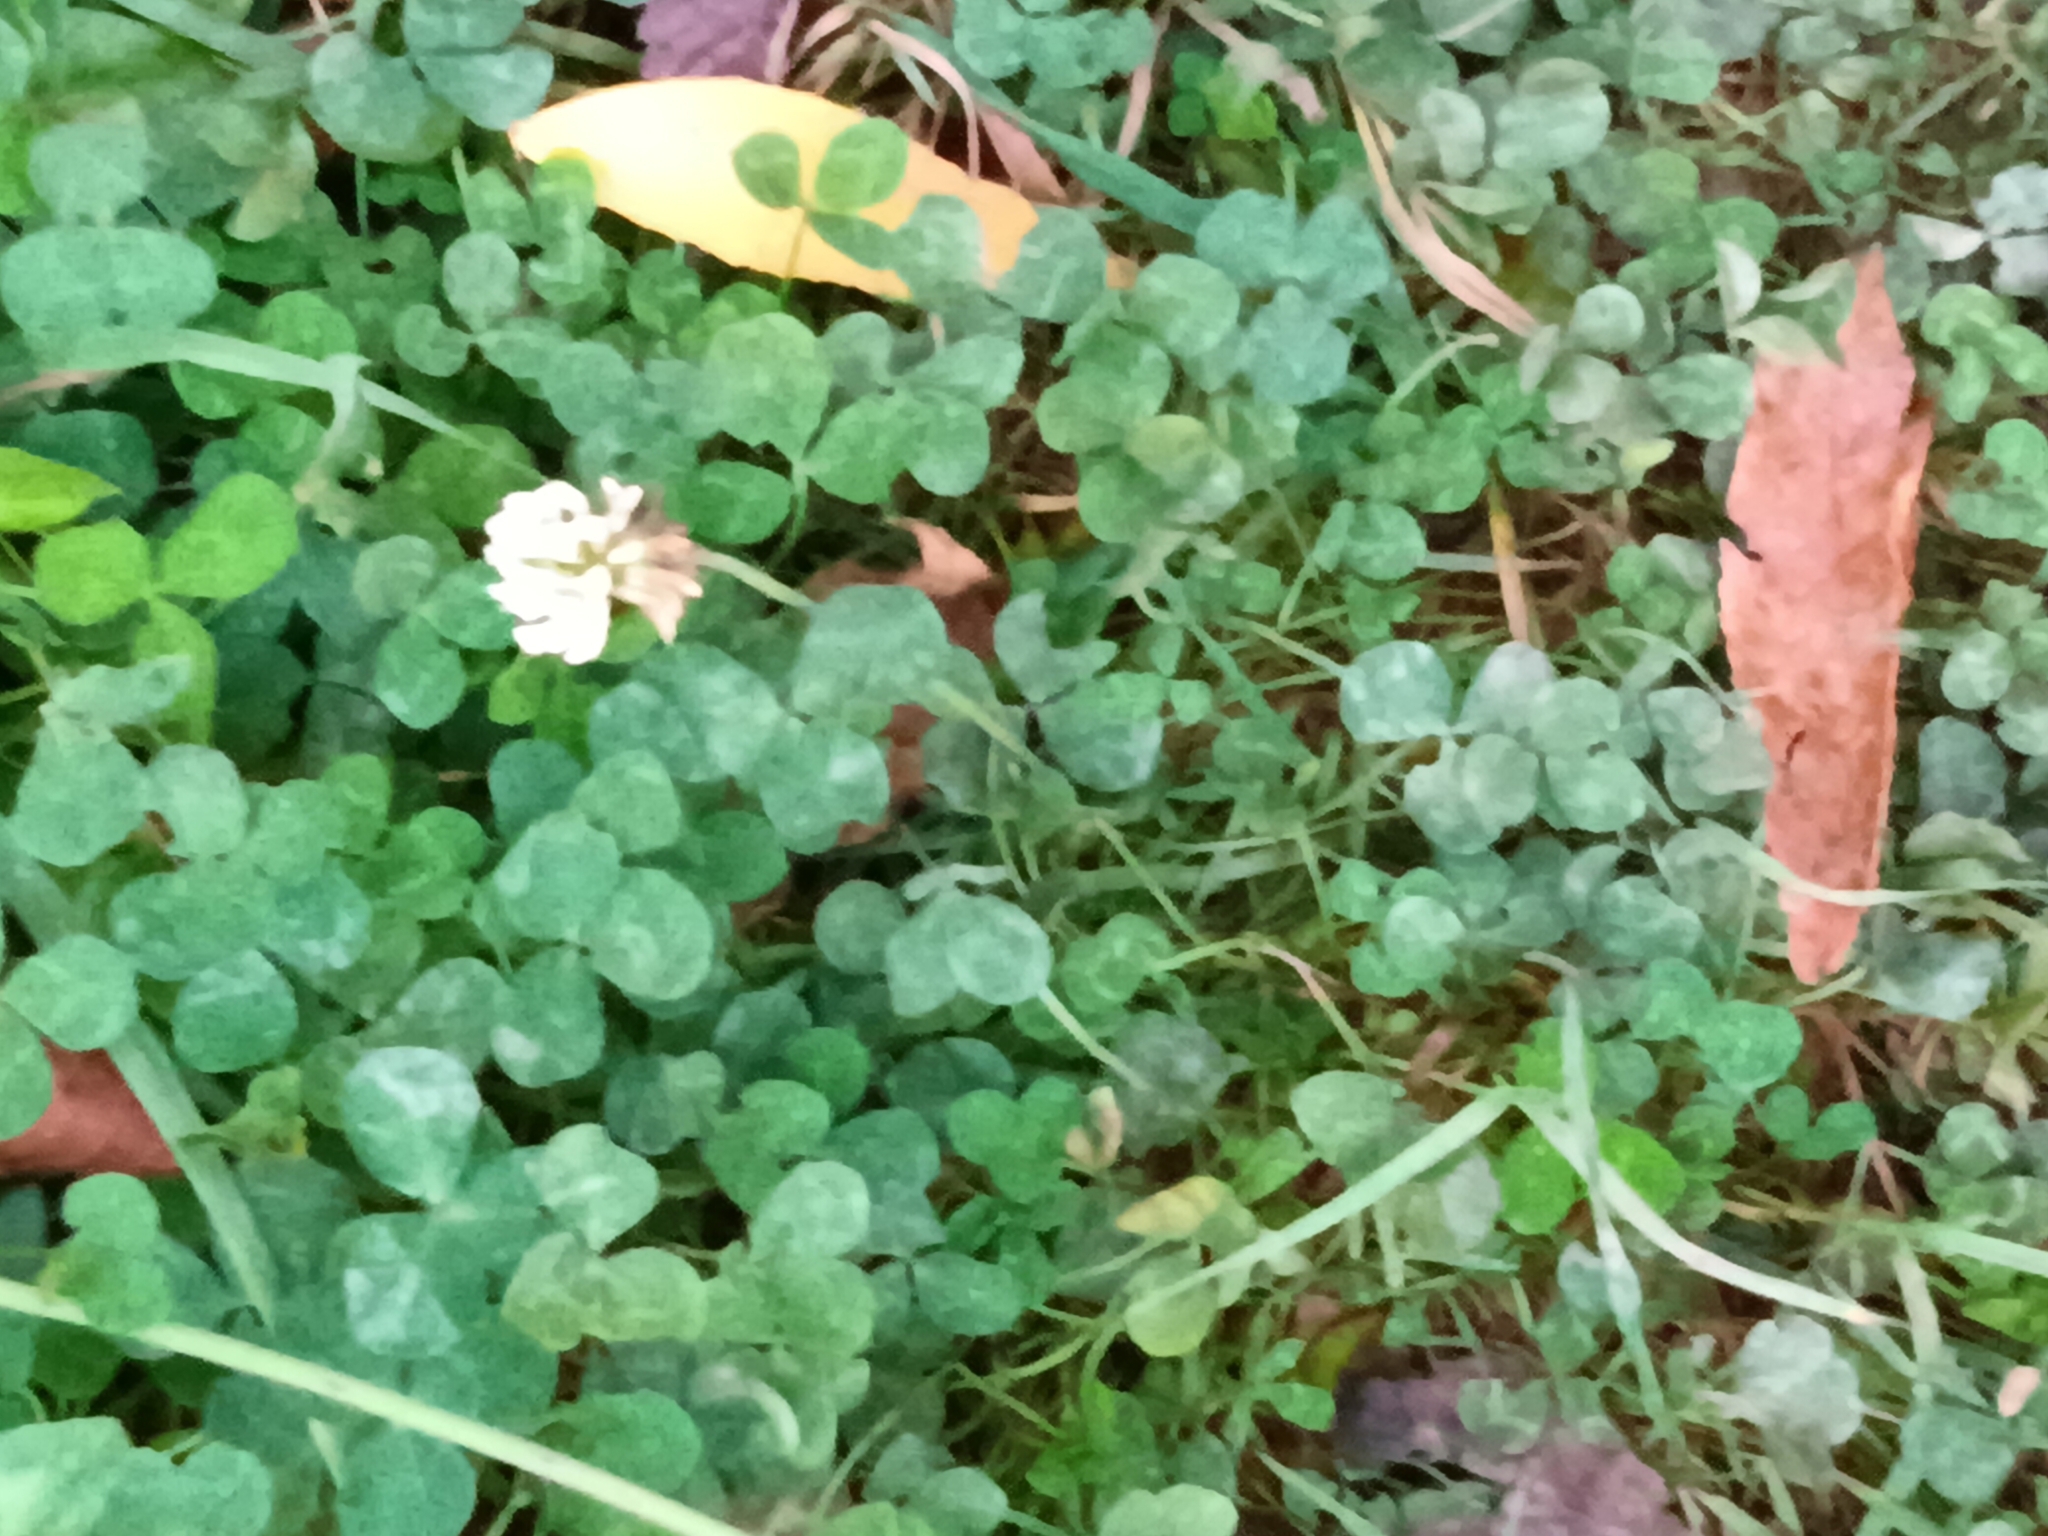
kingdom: Plantae
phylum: Tracheophyta
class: Magnoliopsida
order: Fabales
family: Fabaceae
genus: Trifolium
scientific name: Trifolium repens
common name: White clover
